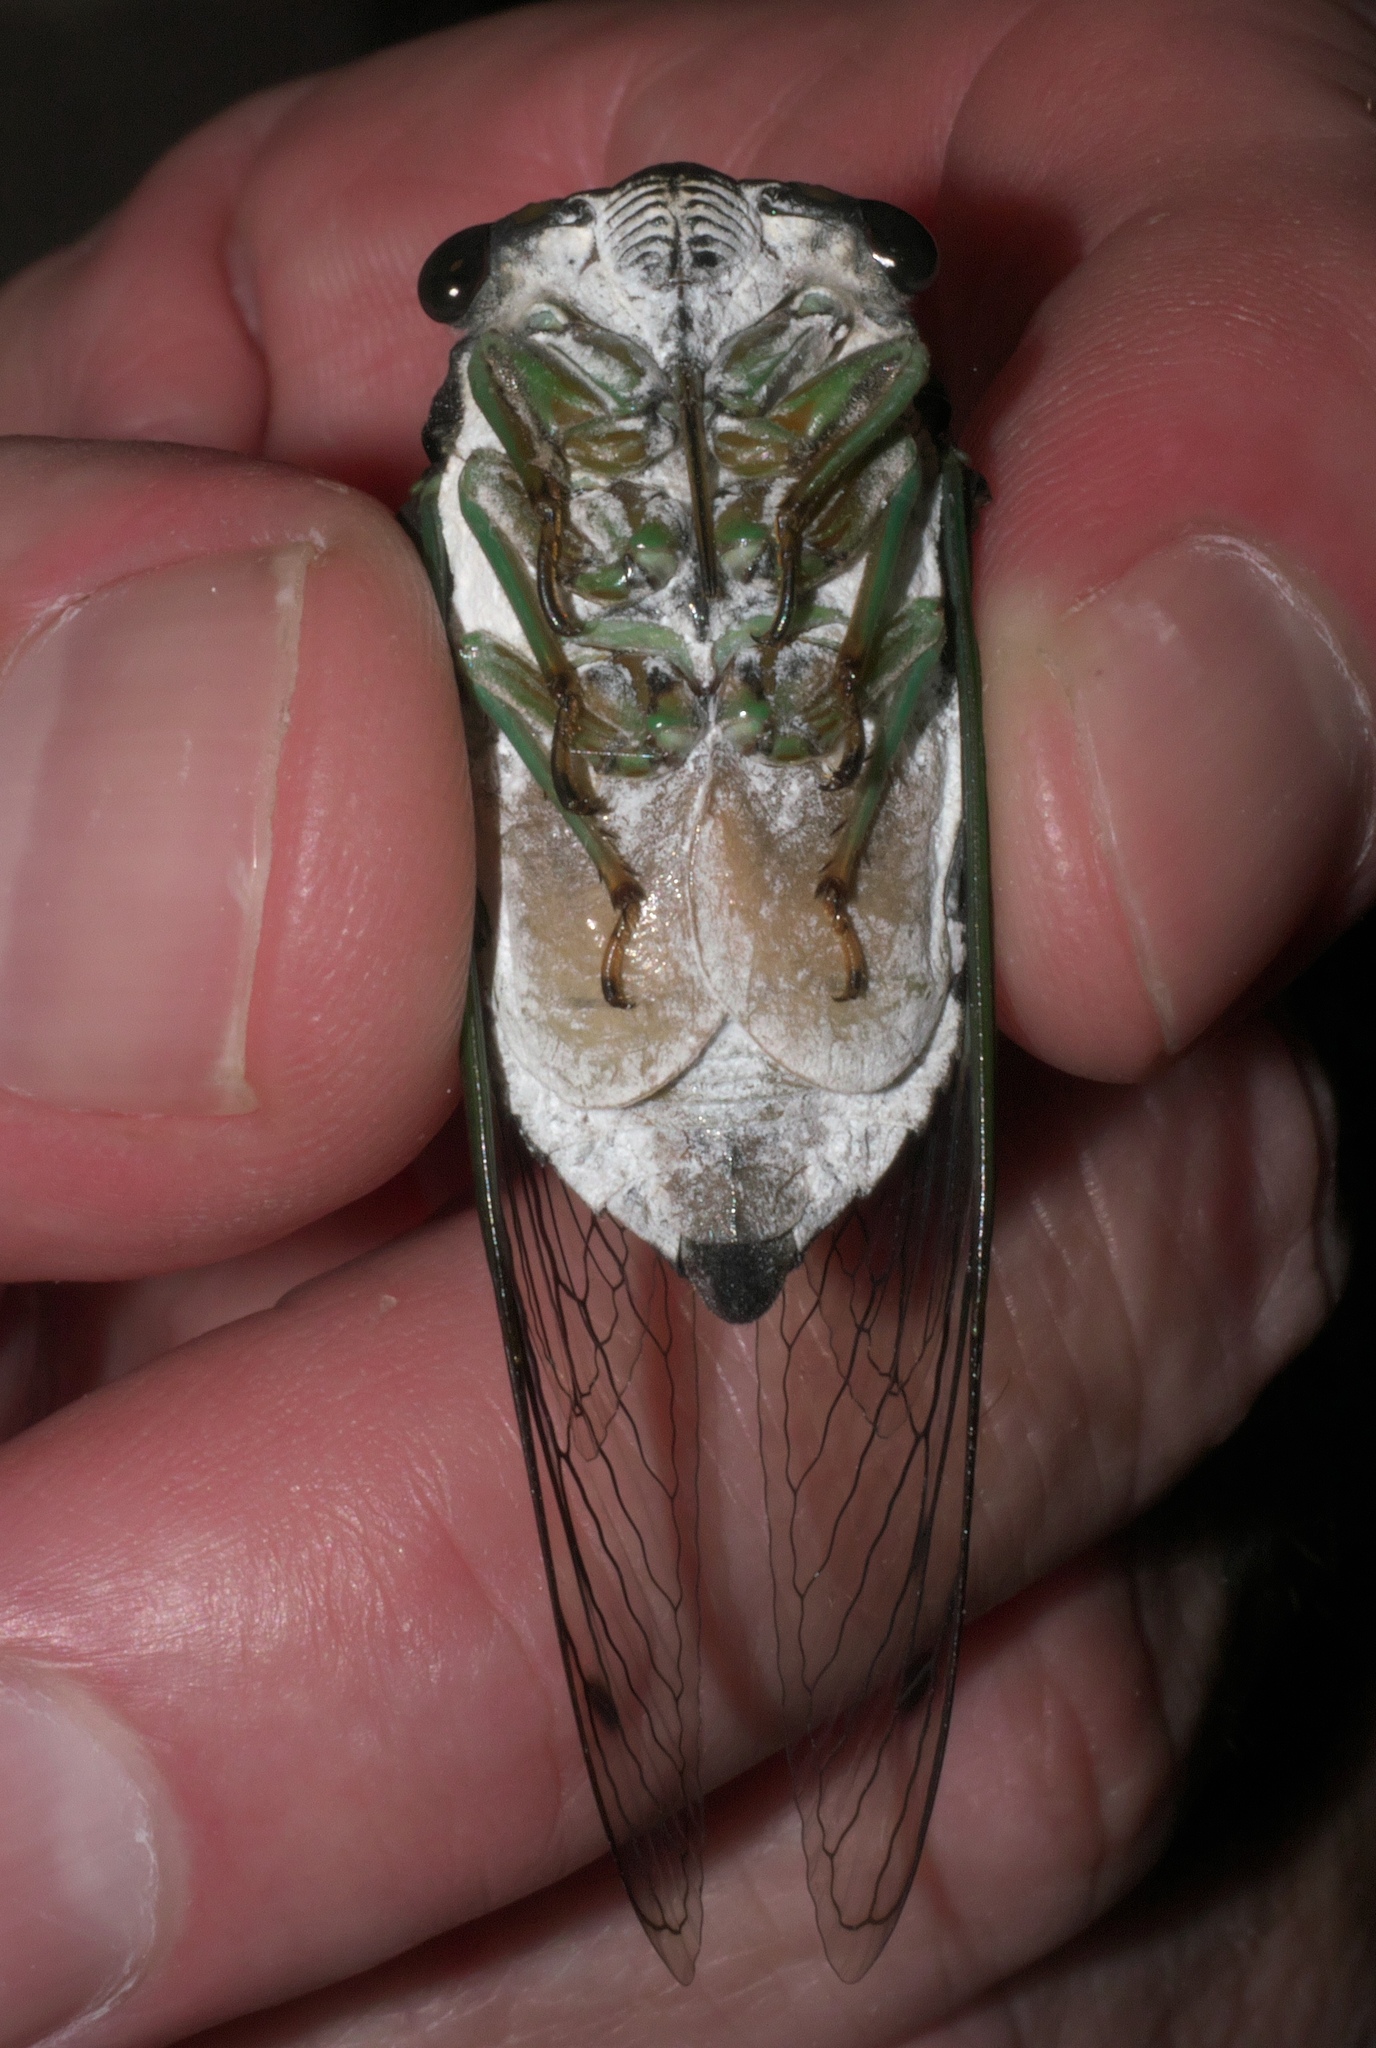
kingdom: Animalia
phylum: Arthropoda
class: Insecta
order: Hemiptera
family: Cicadidae
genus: Neotibicen
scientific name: Neotibicen tibicen
